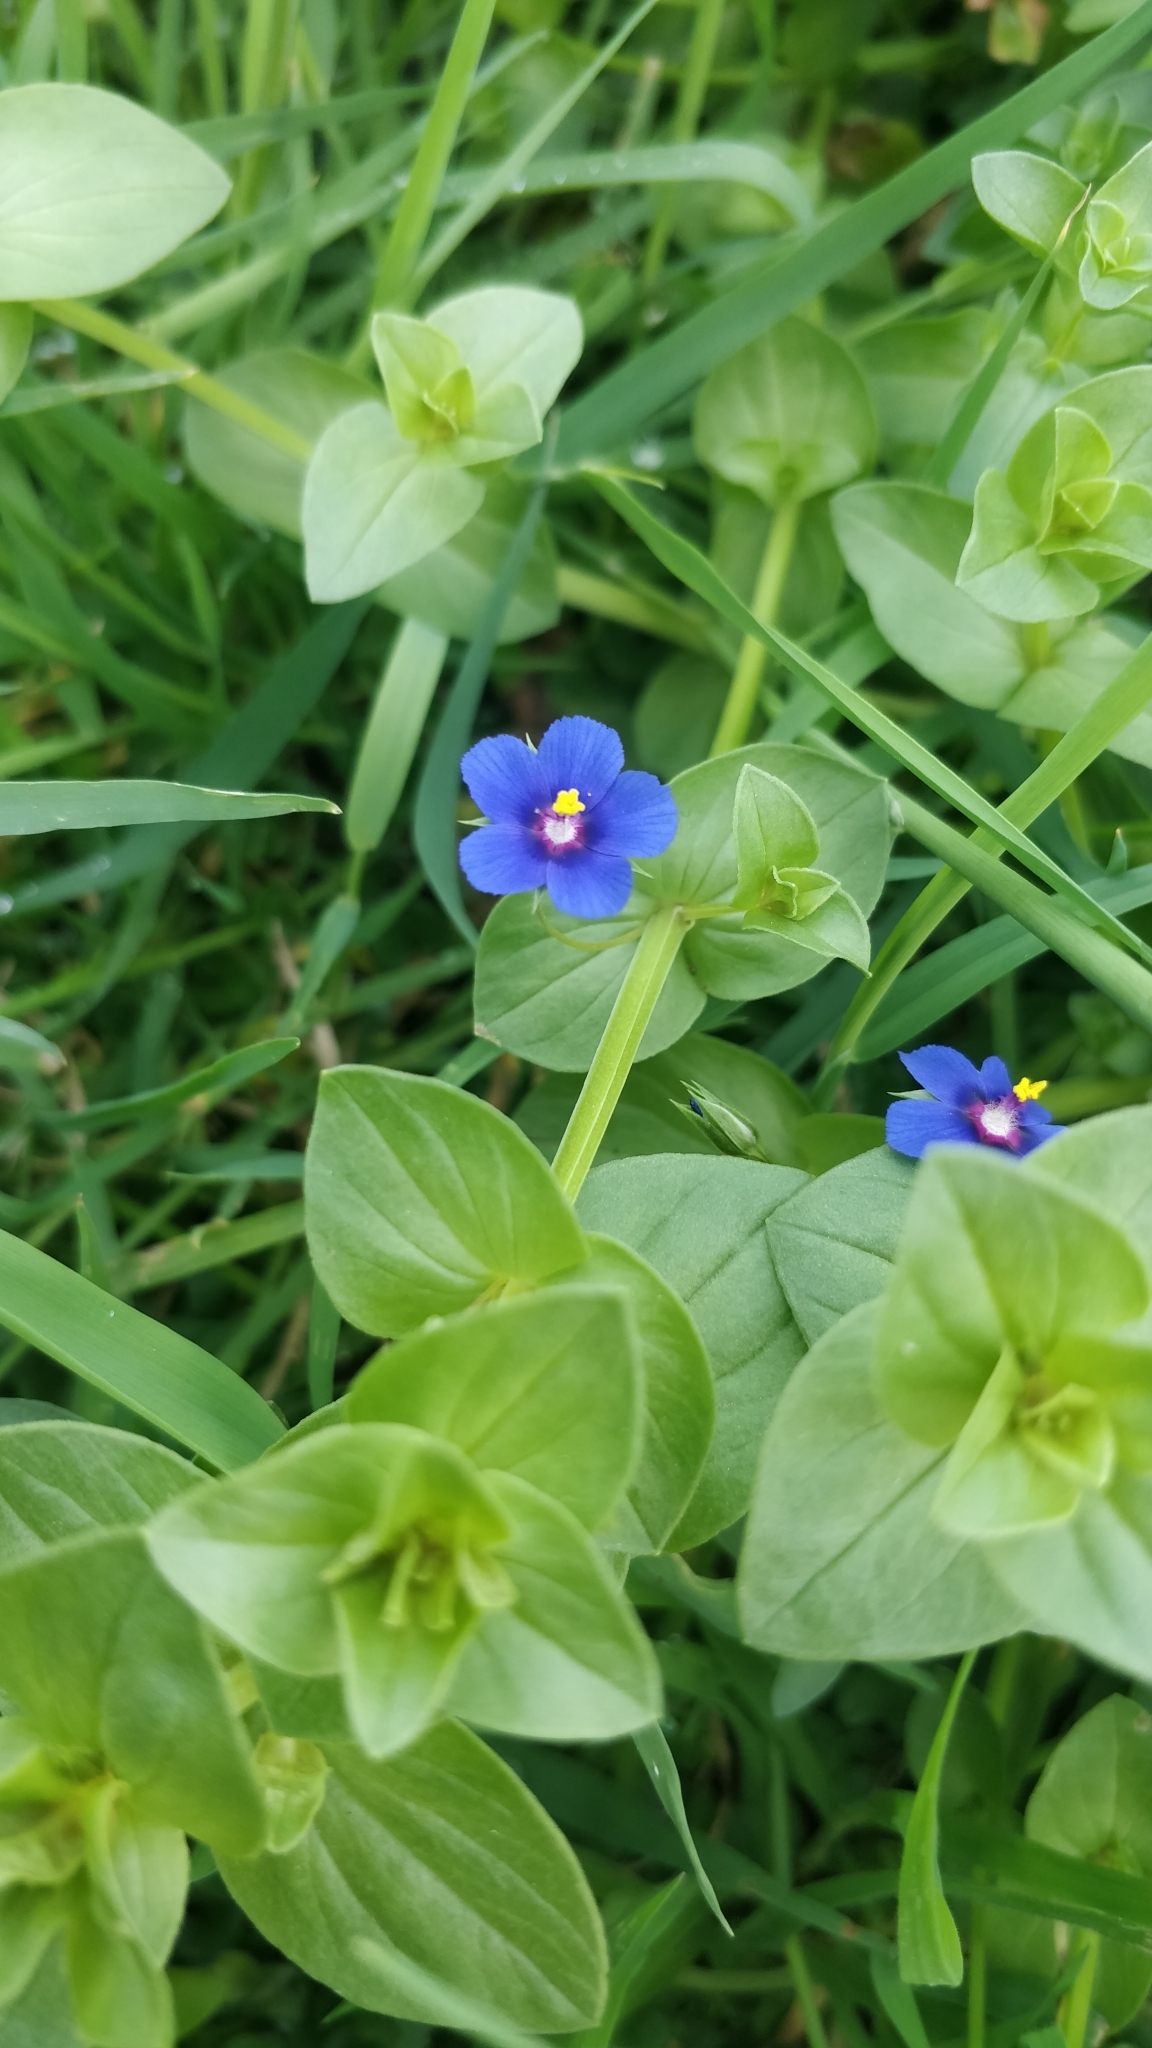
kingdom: Plantae
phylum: Tracheophyta
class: Magnoliopsida
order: Ericales
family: Primulaceae
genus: Lysimachia
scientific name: Lysimachia loeflingii
